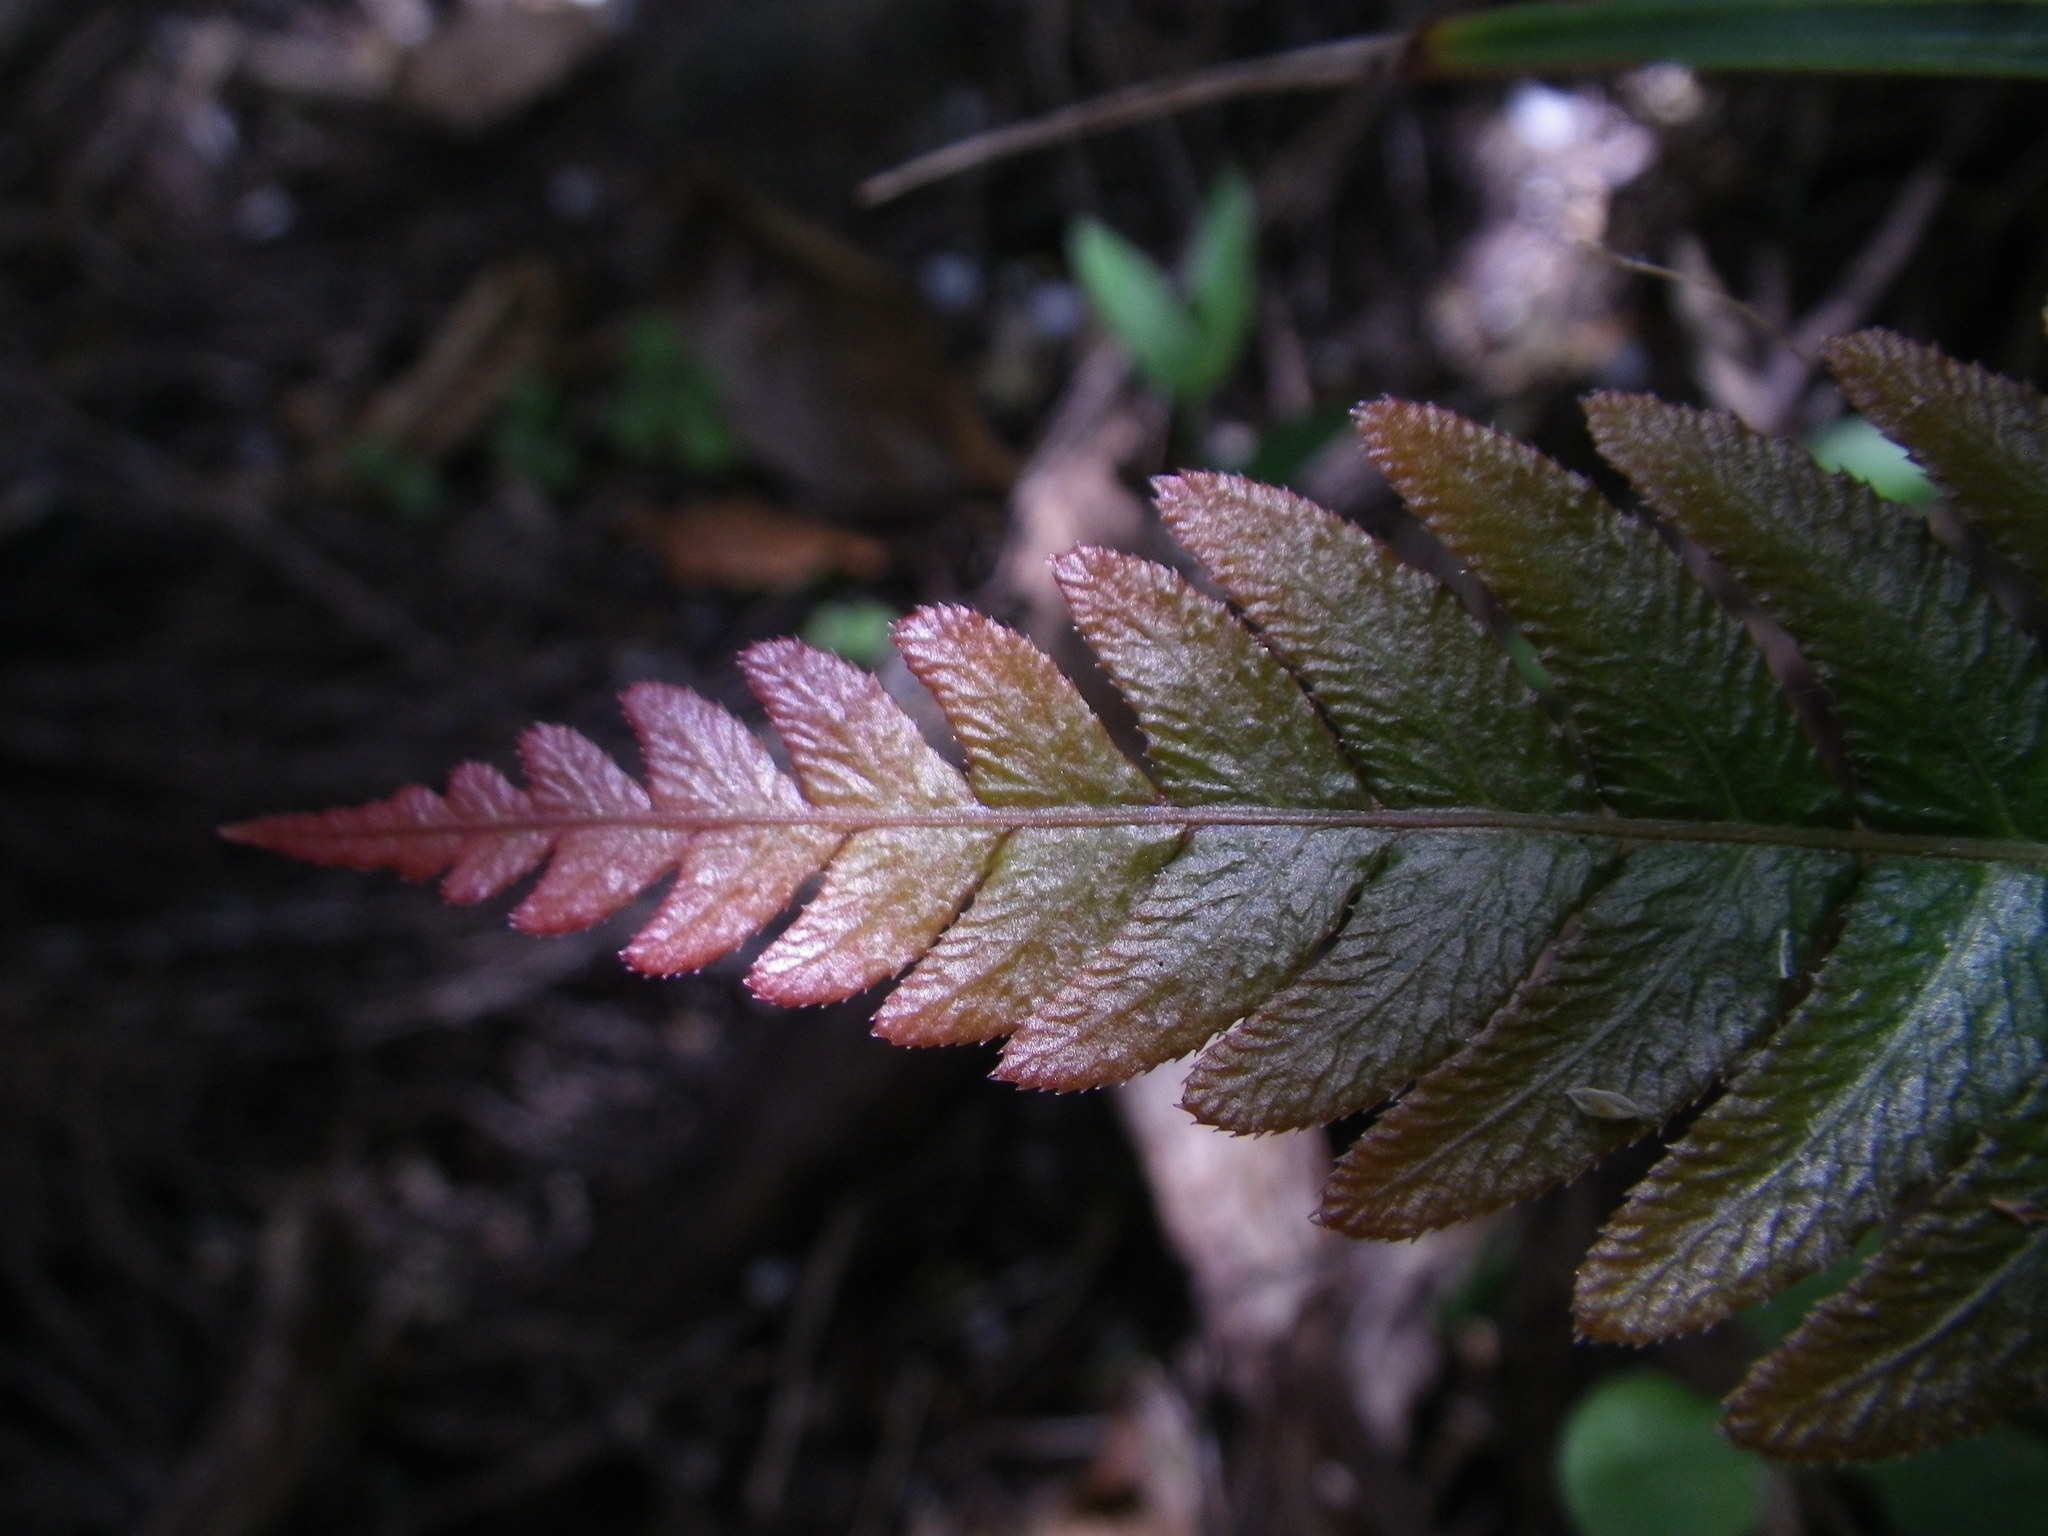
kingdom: Plantae
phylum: Tracheophyta
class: Polypodiopsida
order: Polypodiales
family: Blechnaceae
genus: Doodia
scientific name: Doodia australis
